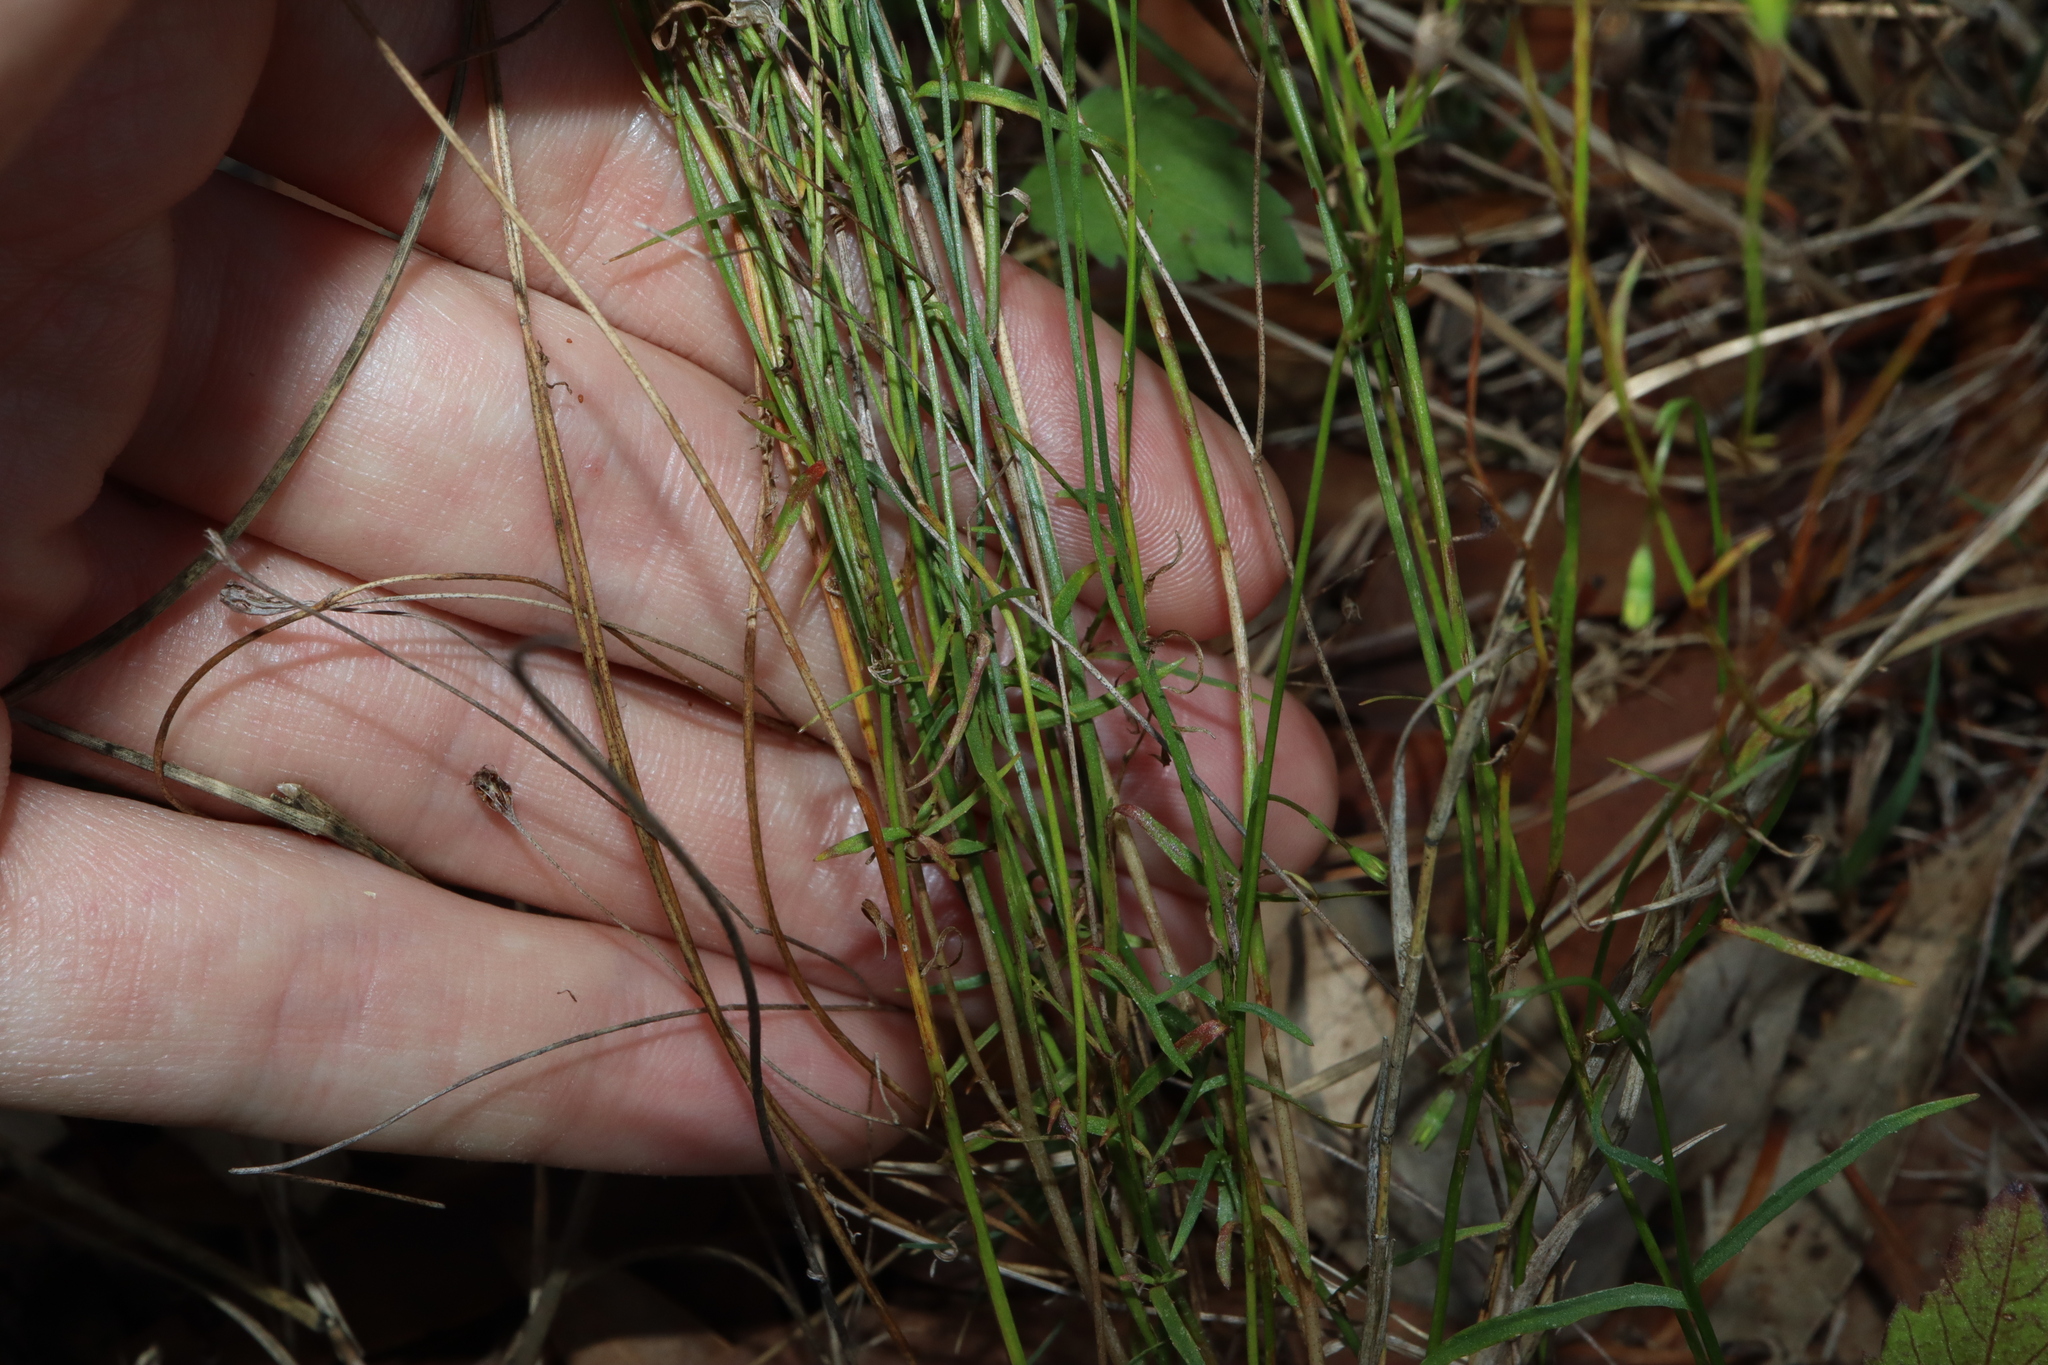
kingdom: Plantae
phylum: Tracheophyta
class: Magnoliopsida
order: Asterales
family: Campanulaceae
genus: Wahlenbergia
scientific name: Wahlenbergia gracilis
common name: Harebell
